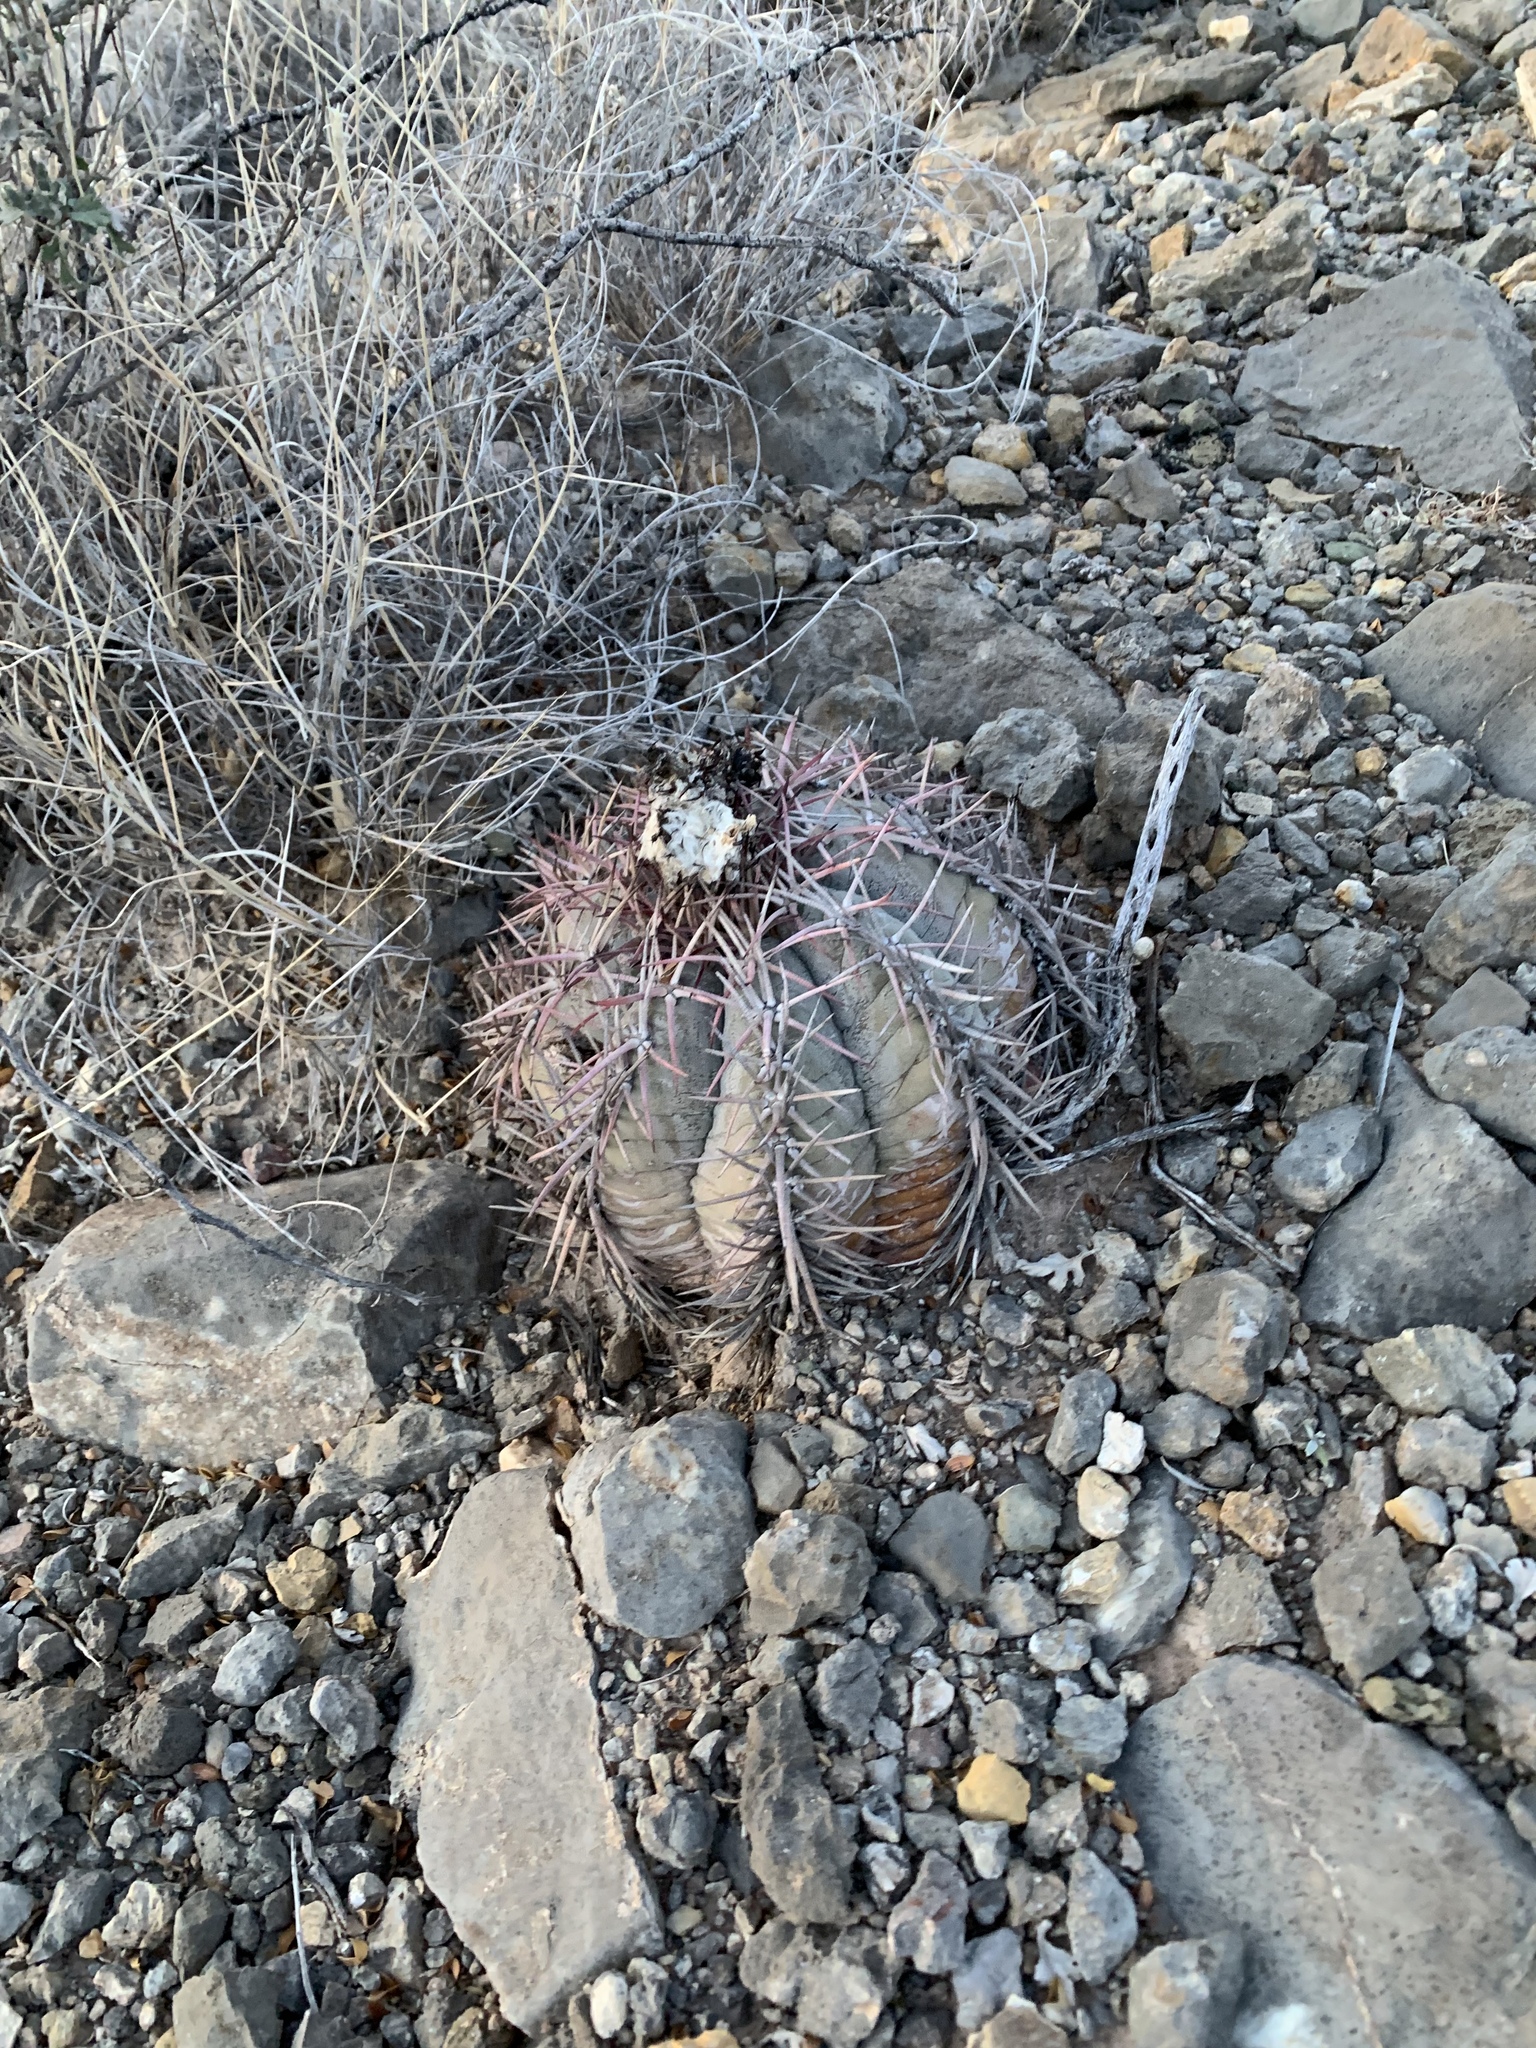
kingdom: Plantae
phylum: Tracheophyta
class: Magnoliopsida
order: Caryophyllales
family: Cactaceae
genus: Echinocactus
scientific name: Echinocactus horizonthalonius
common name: Devilshead
